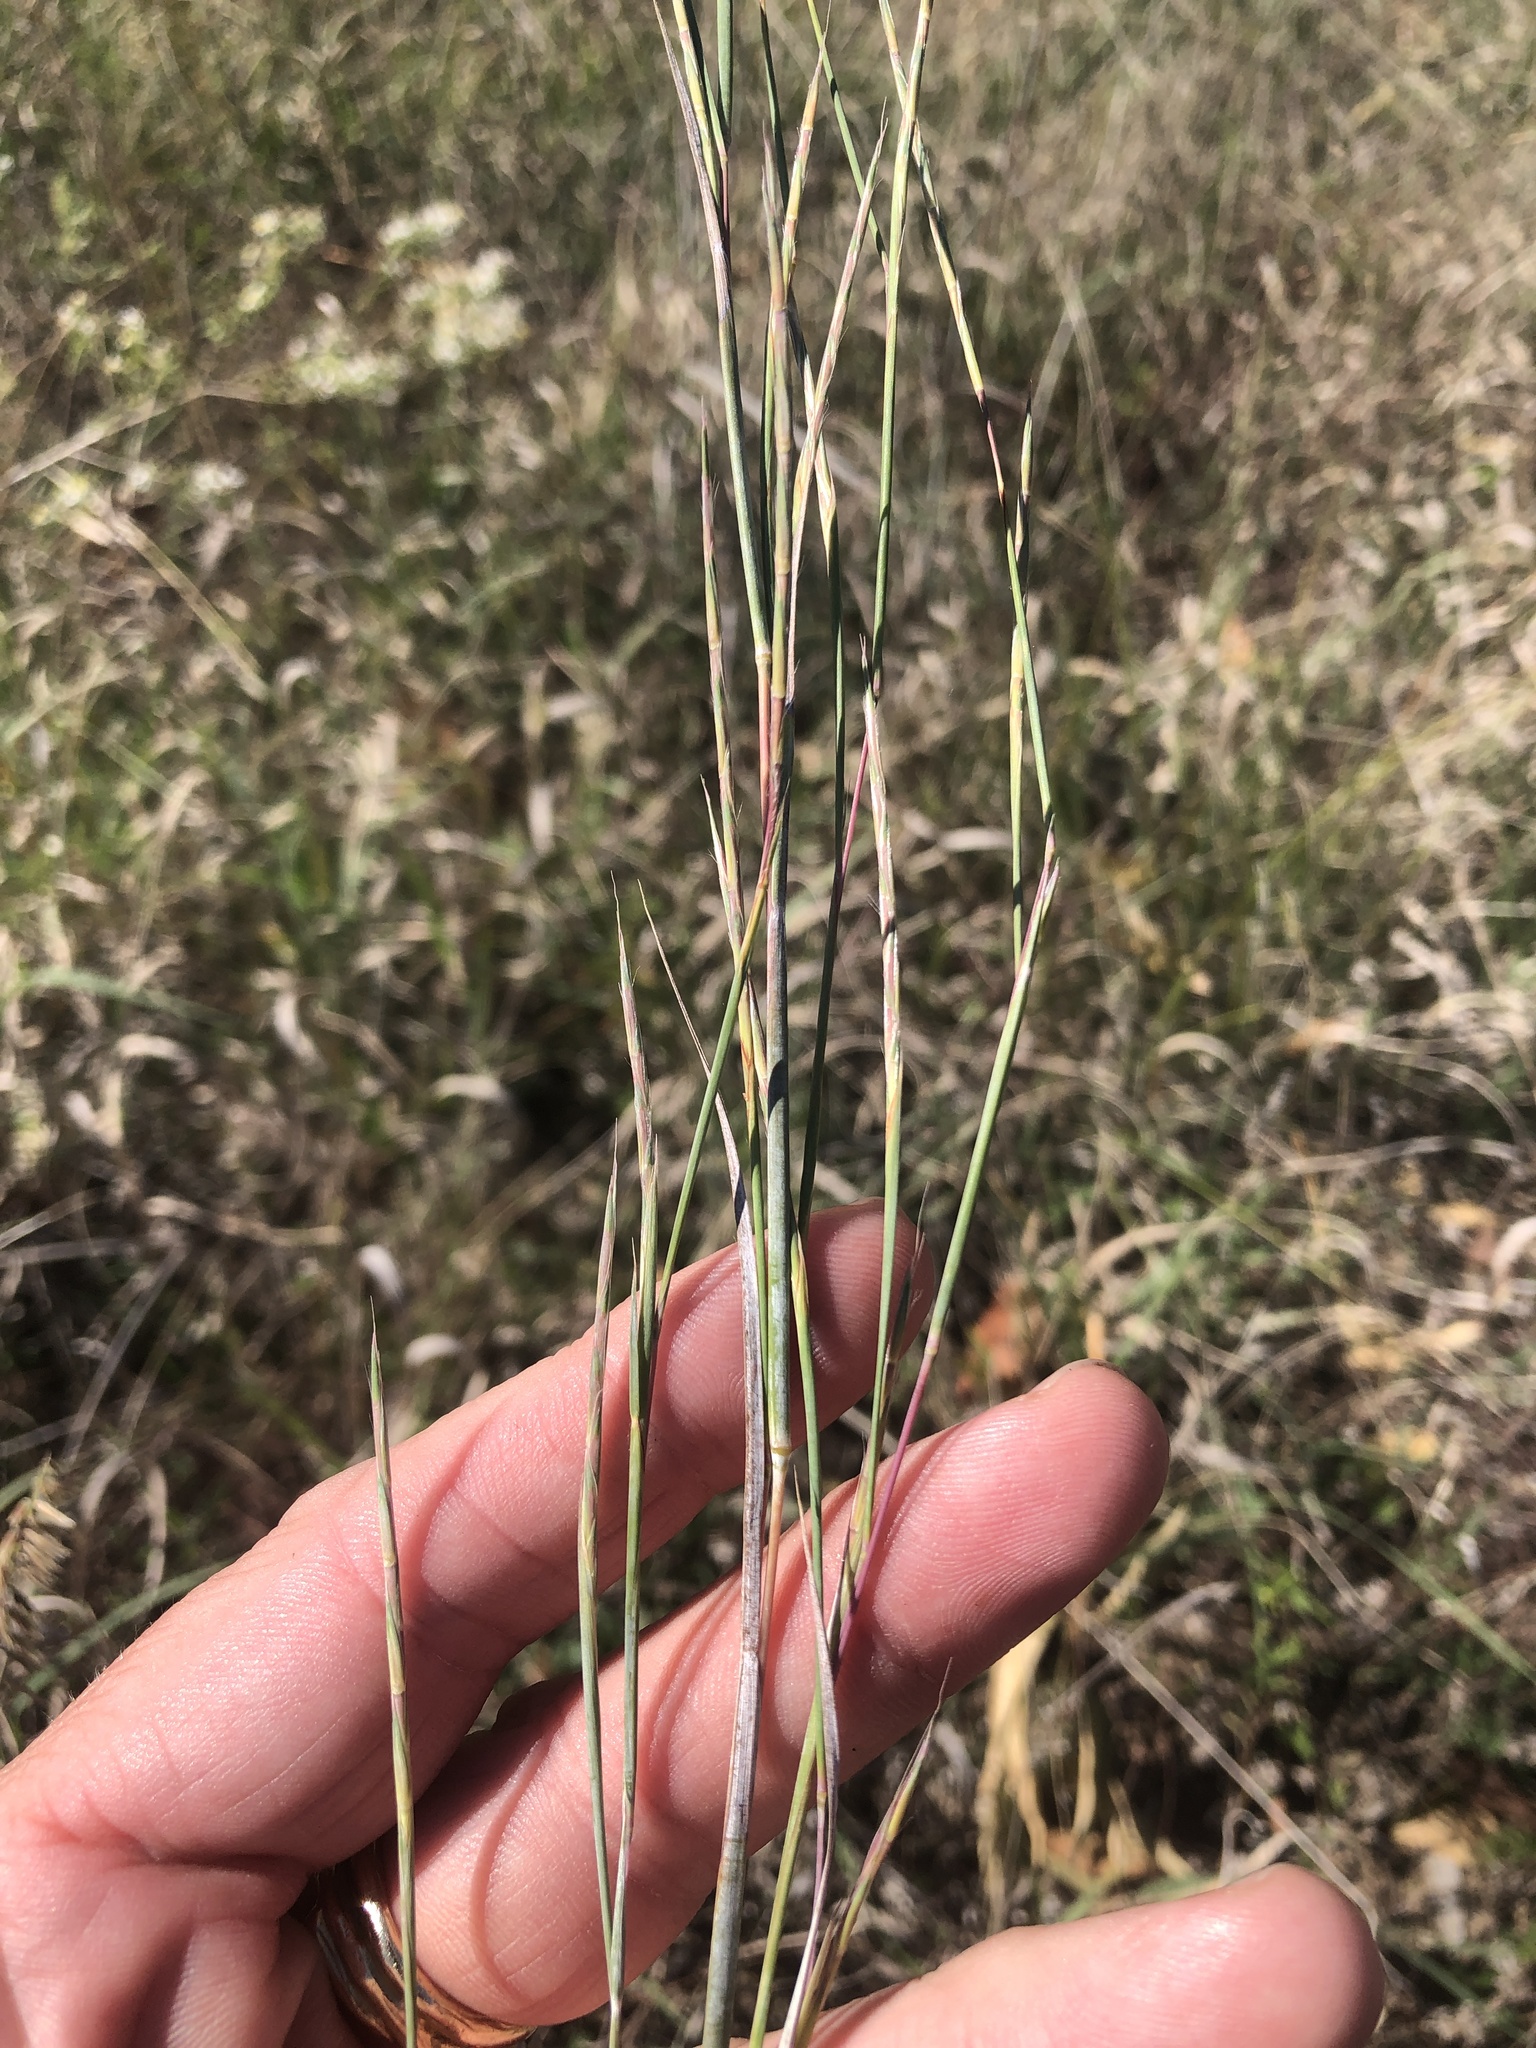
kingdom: Plantae
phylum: Tracheophyta
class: Liliopsida
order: Poales
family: Poaceae
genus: Schizachyrium
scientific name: Schizachyrium scoparium
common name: Little bluestem
